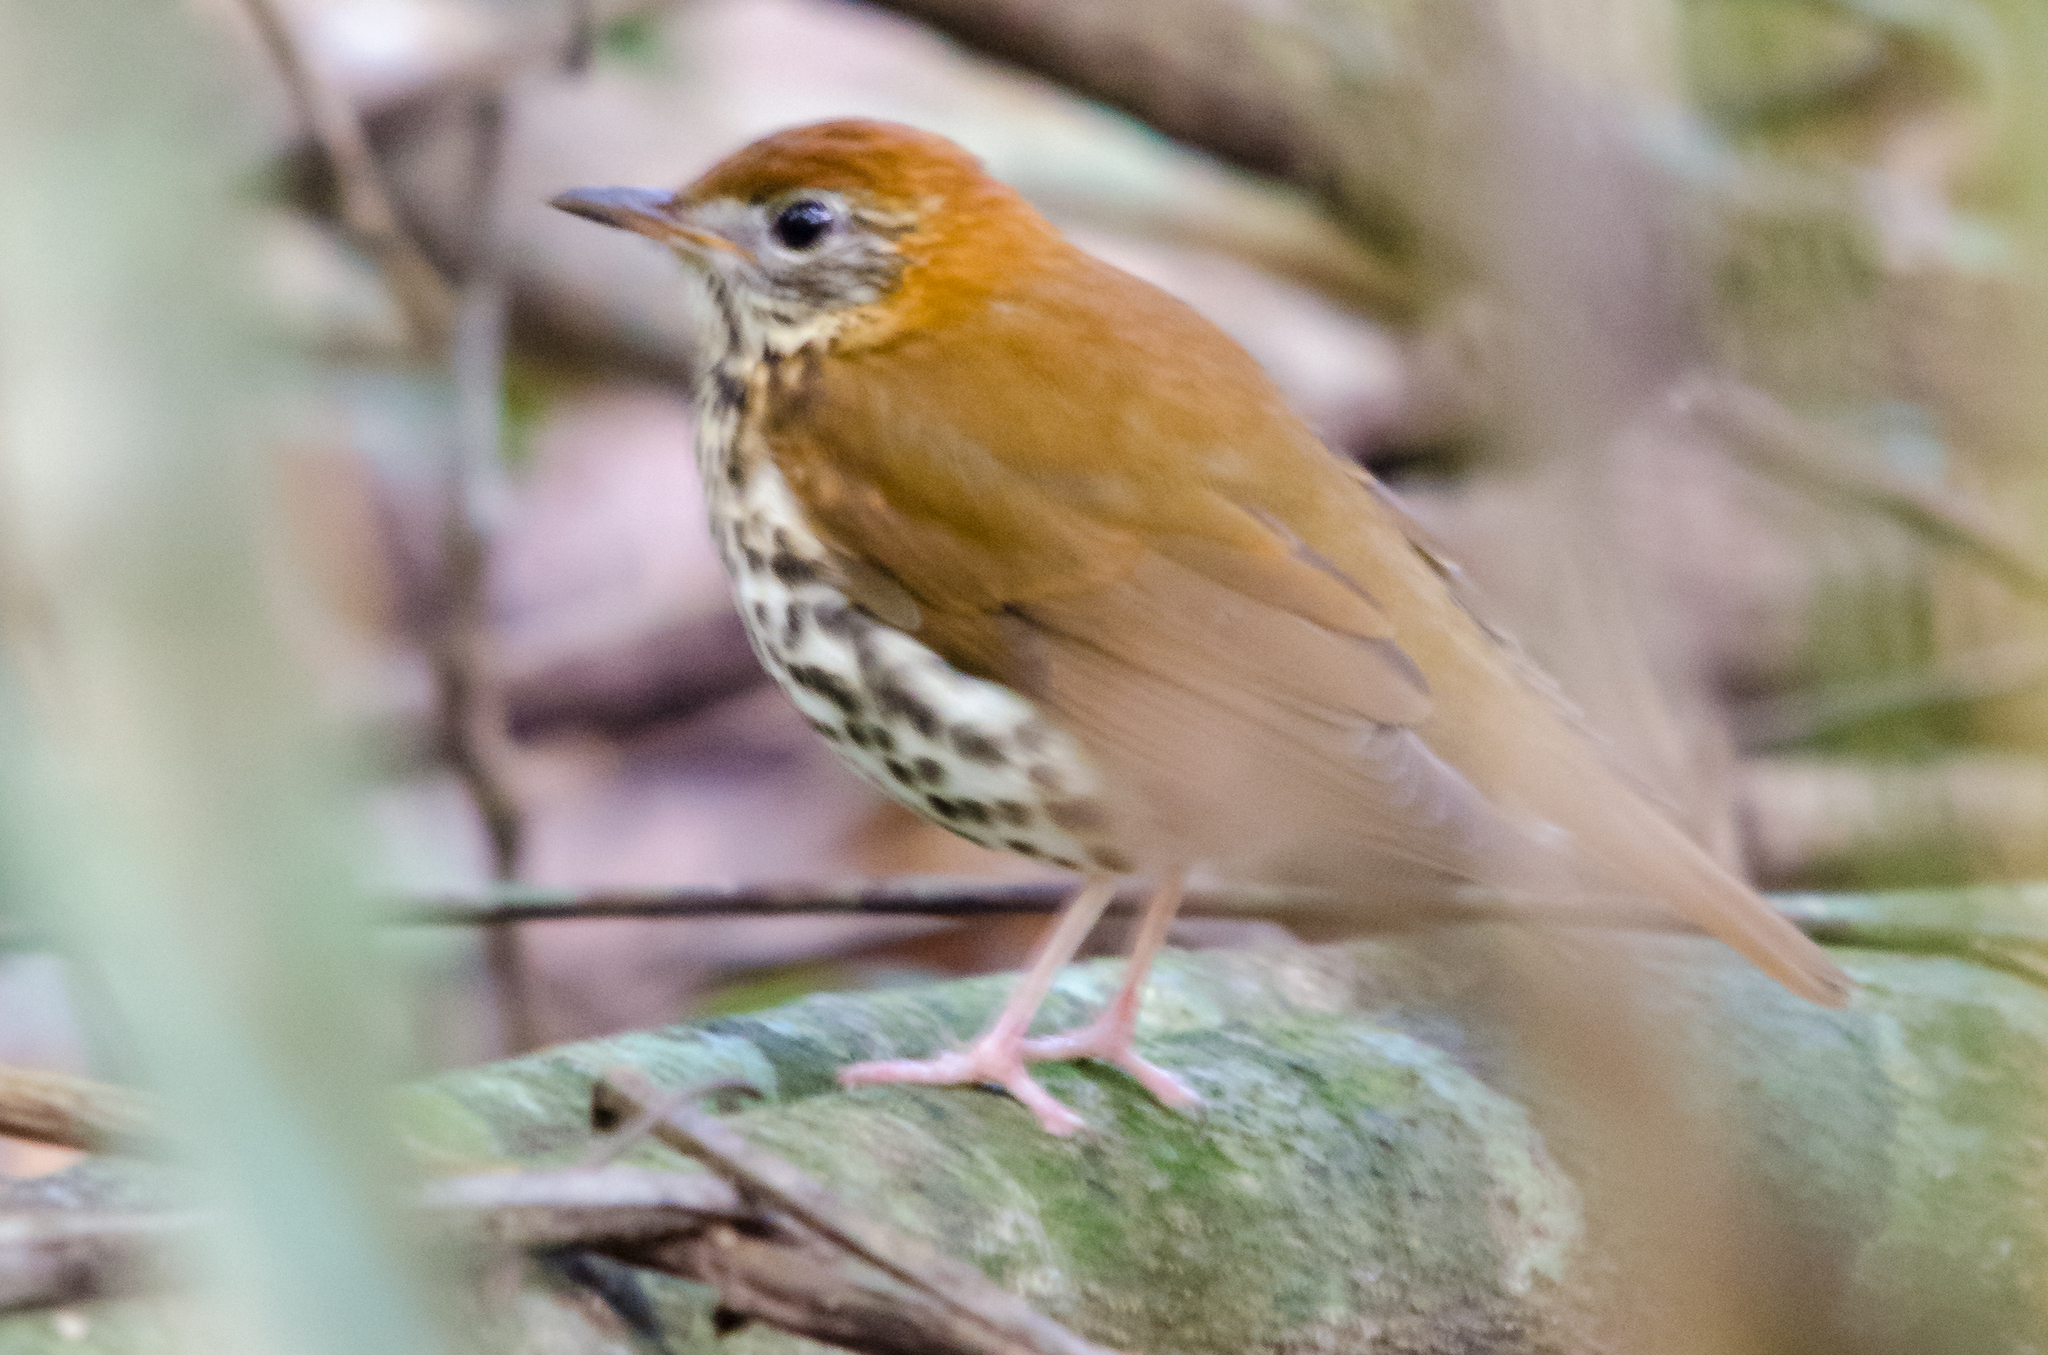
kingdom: Animalia
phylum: Chordata
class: Aves
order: Passeriformes
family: Turdidae
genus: Hylocichla
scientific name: Hylocichla mustelina
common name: Wood thrush
